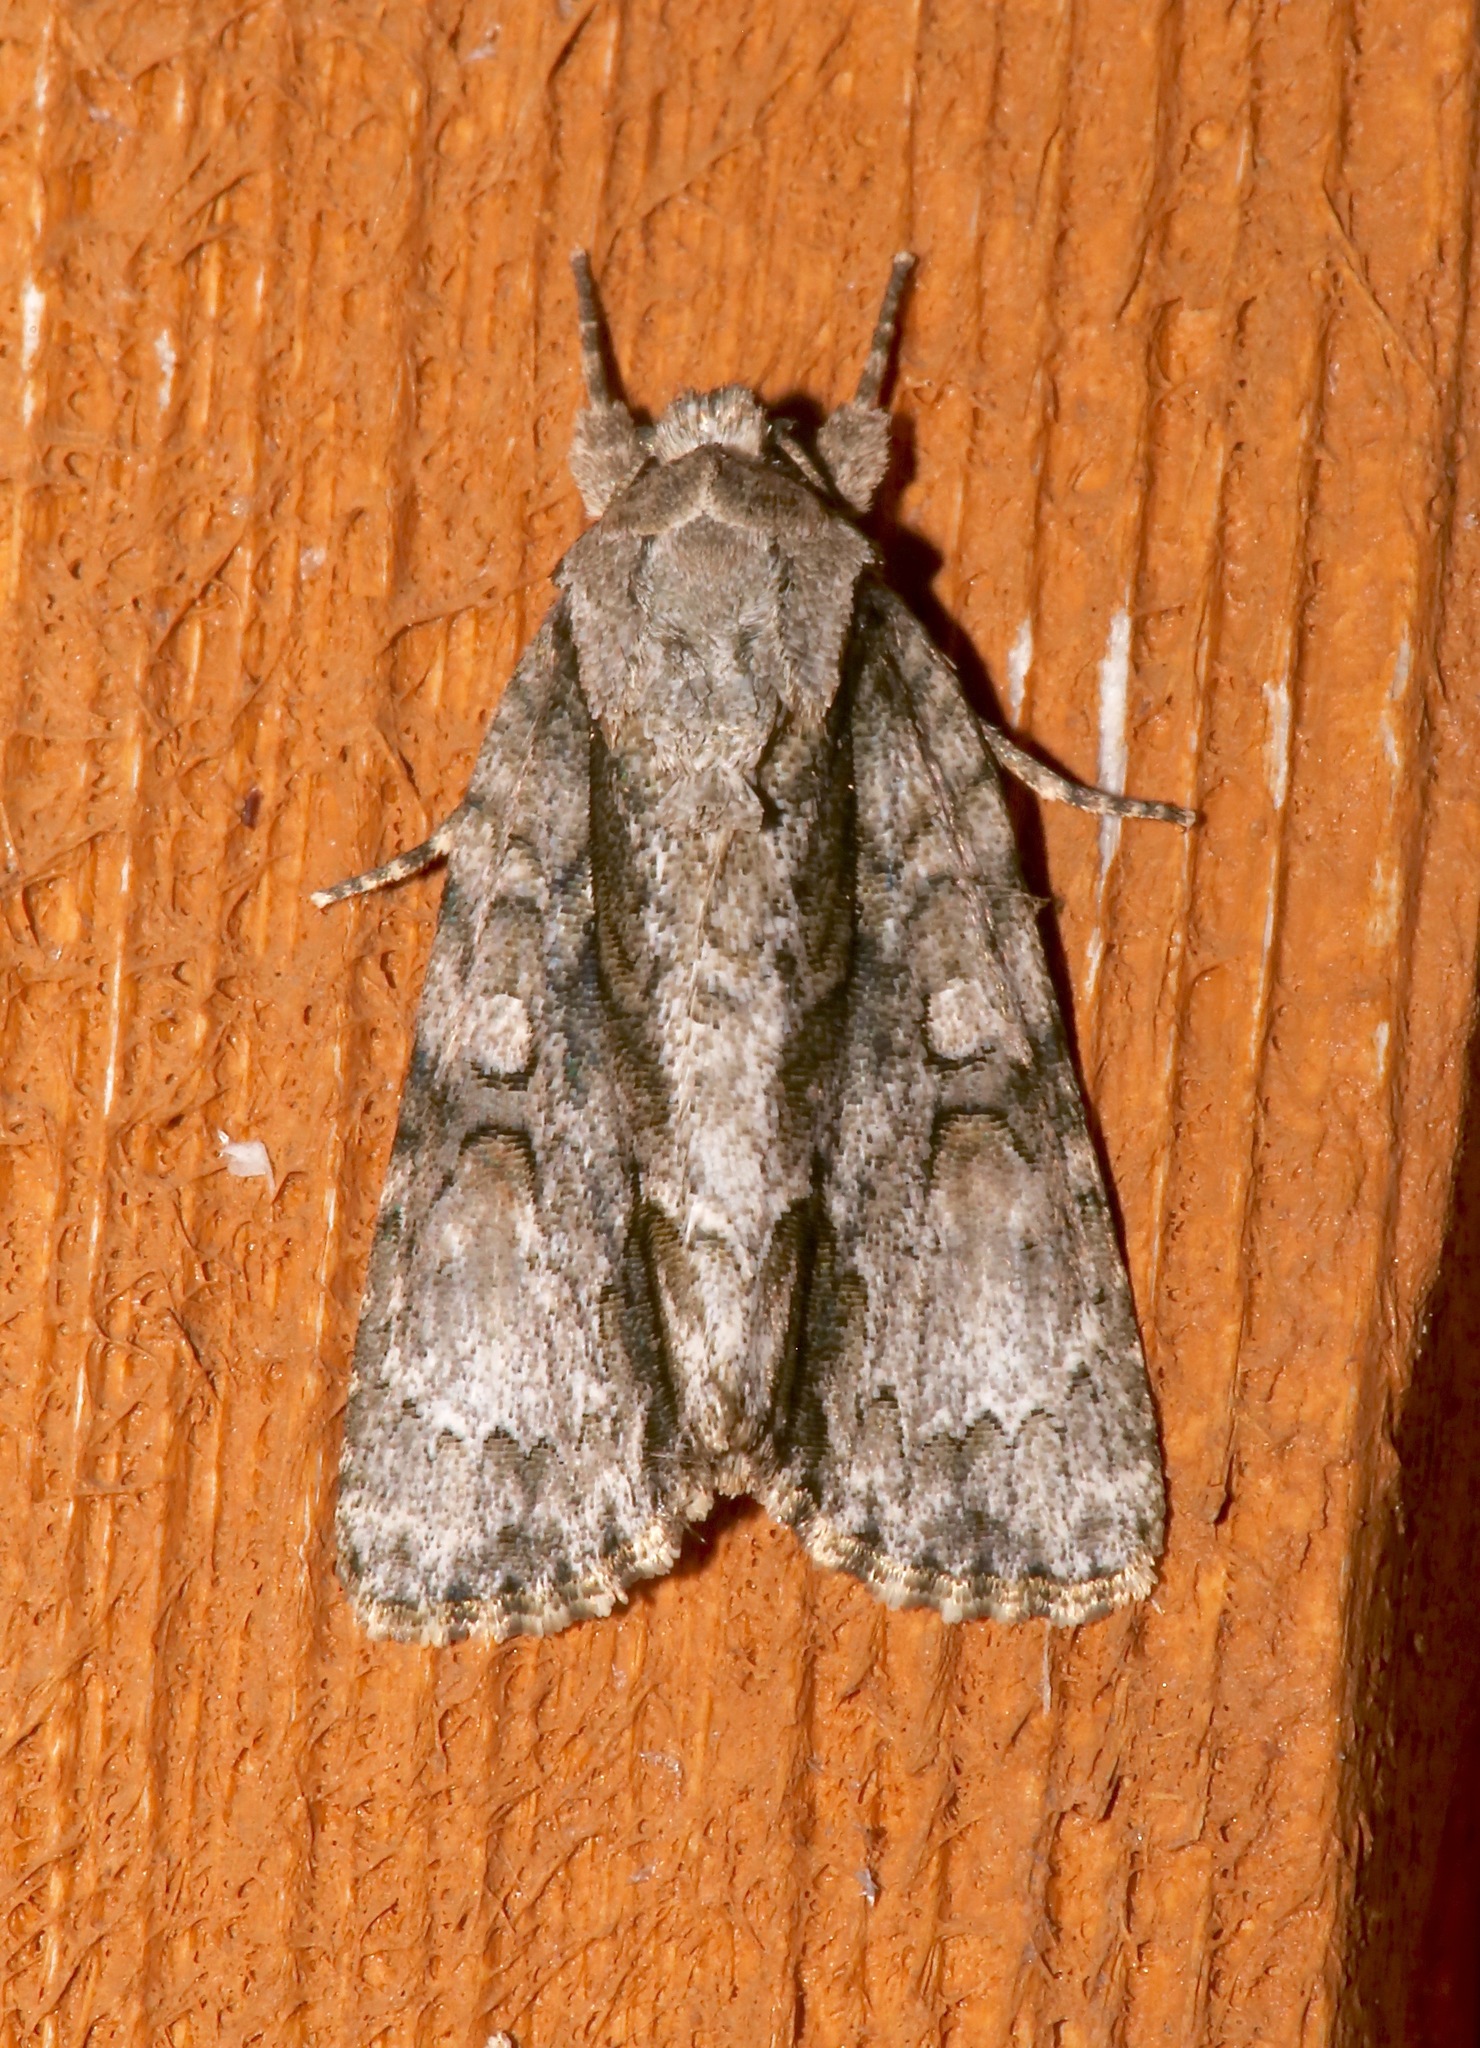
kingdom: Animalia
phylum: Arthropoda
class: Insecta
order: Lepidoptera
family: Noctuidae
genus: Acronicta
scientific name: Acronicta connecta
